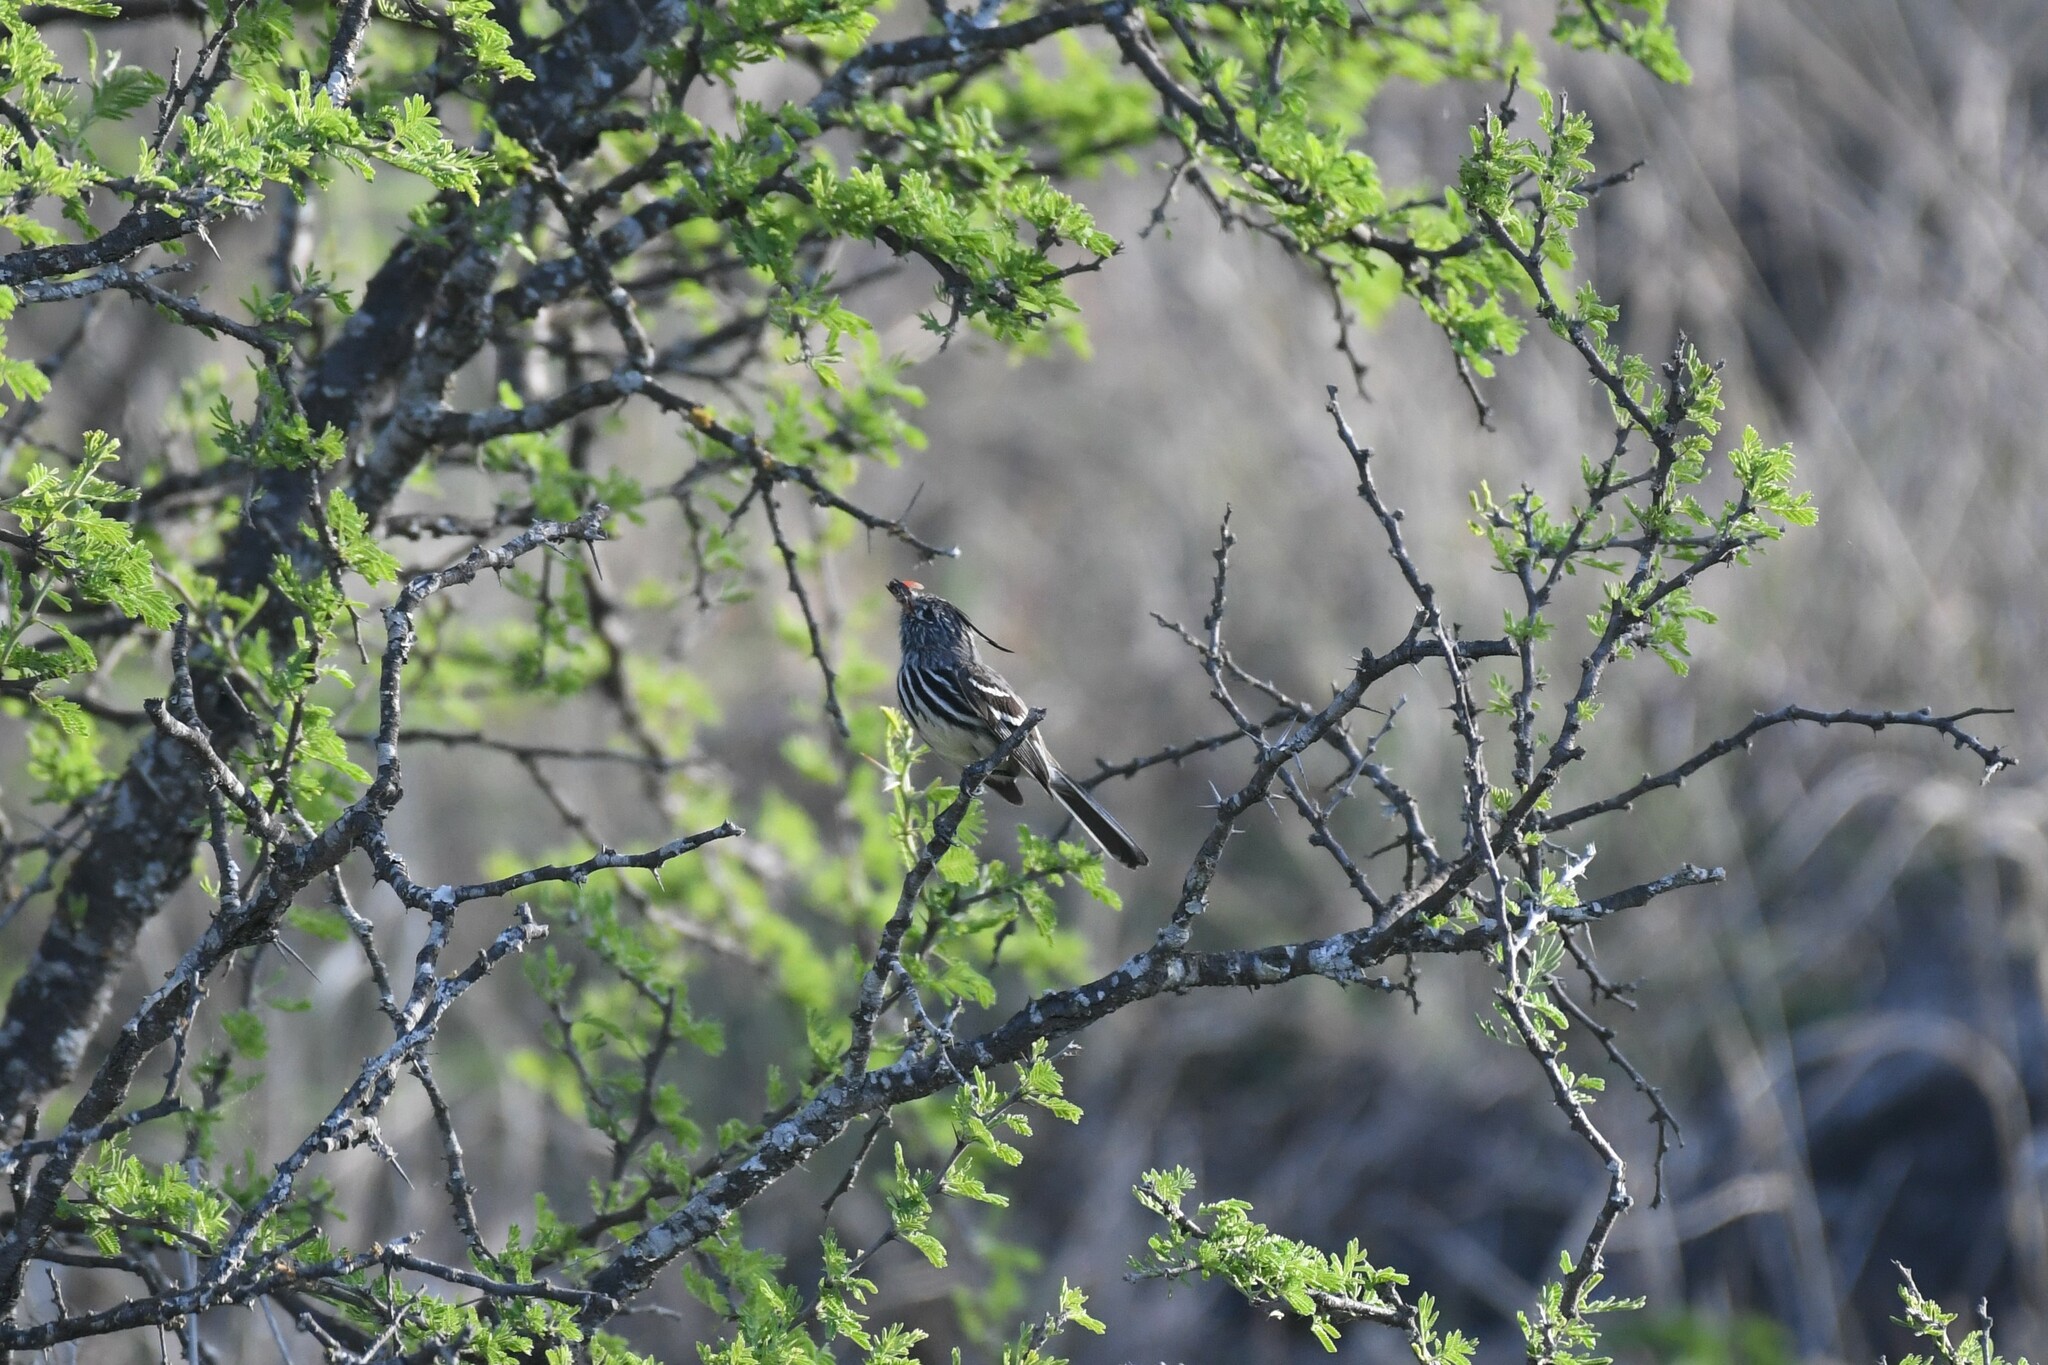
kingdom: Animalia
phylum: Chordata
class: Aves
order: Passeriformes
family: Tyrannidae
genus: Anairetes
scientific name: Anairetes flavirostris
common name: Yellow-billed tit-tyrant
